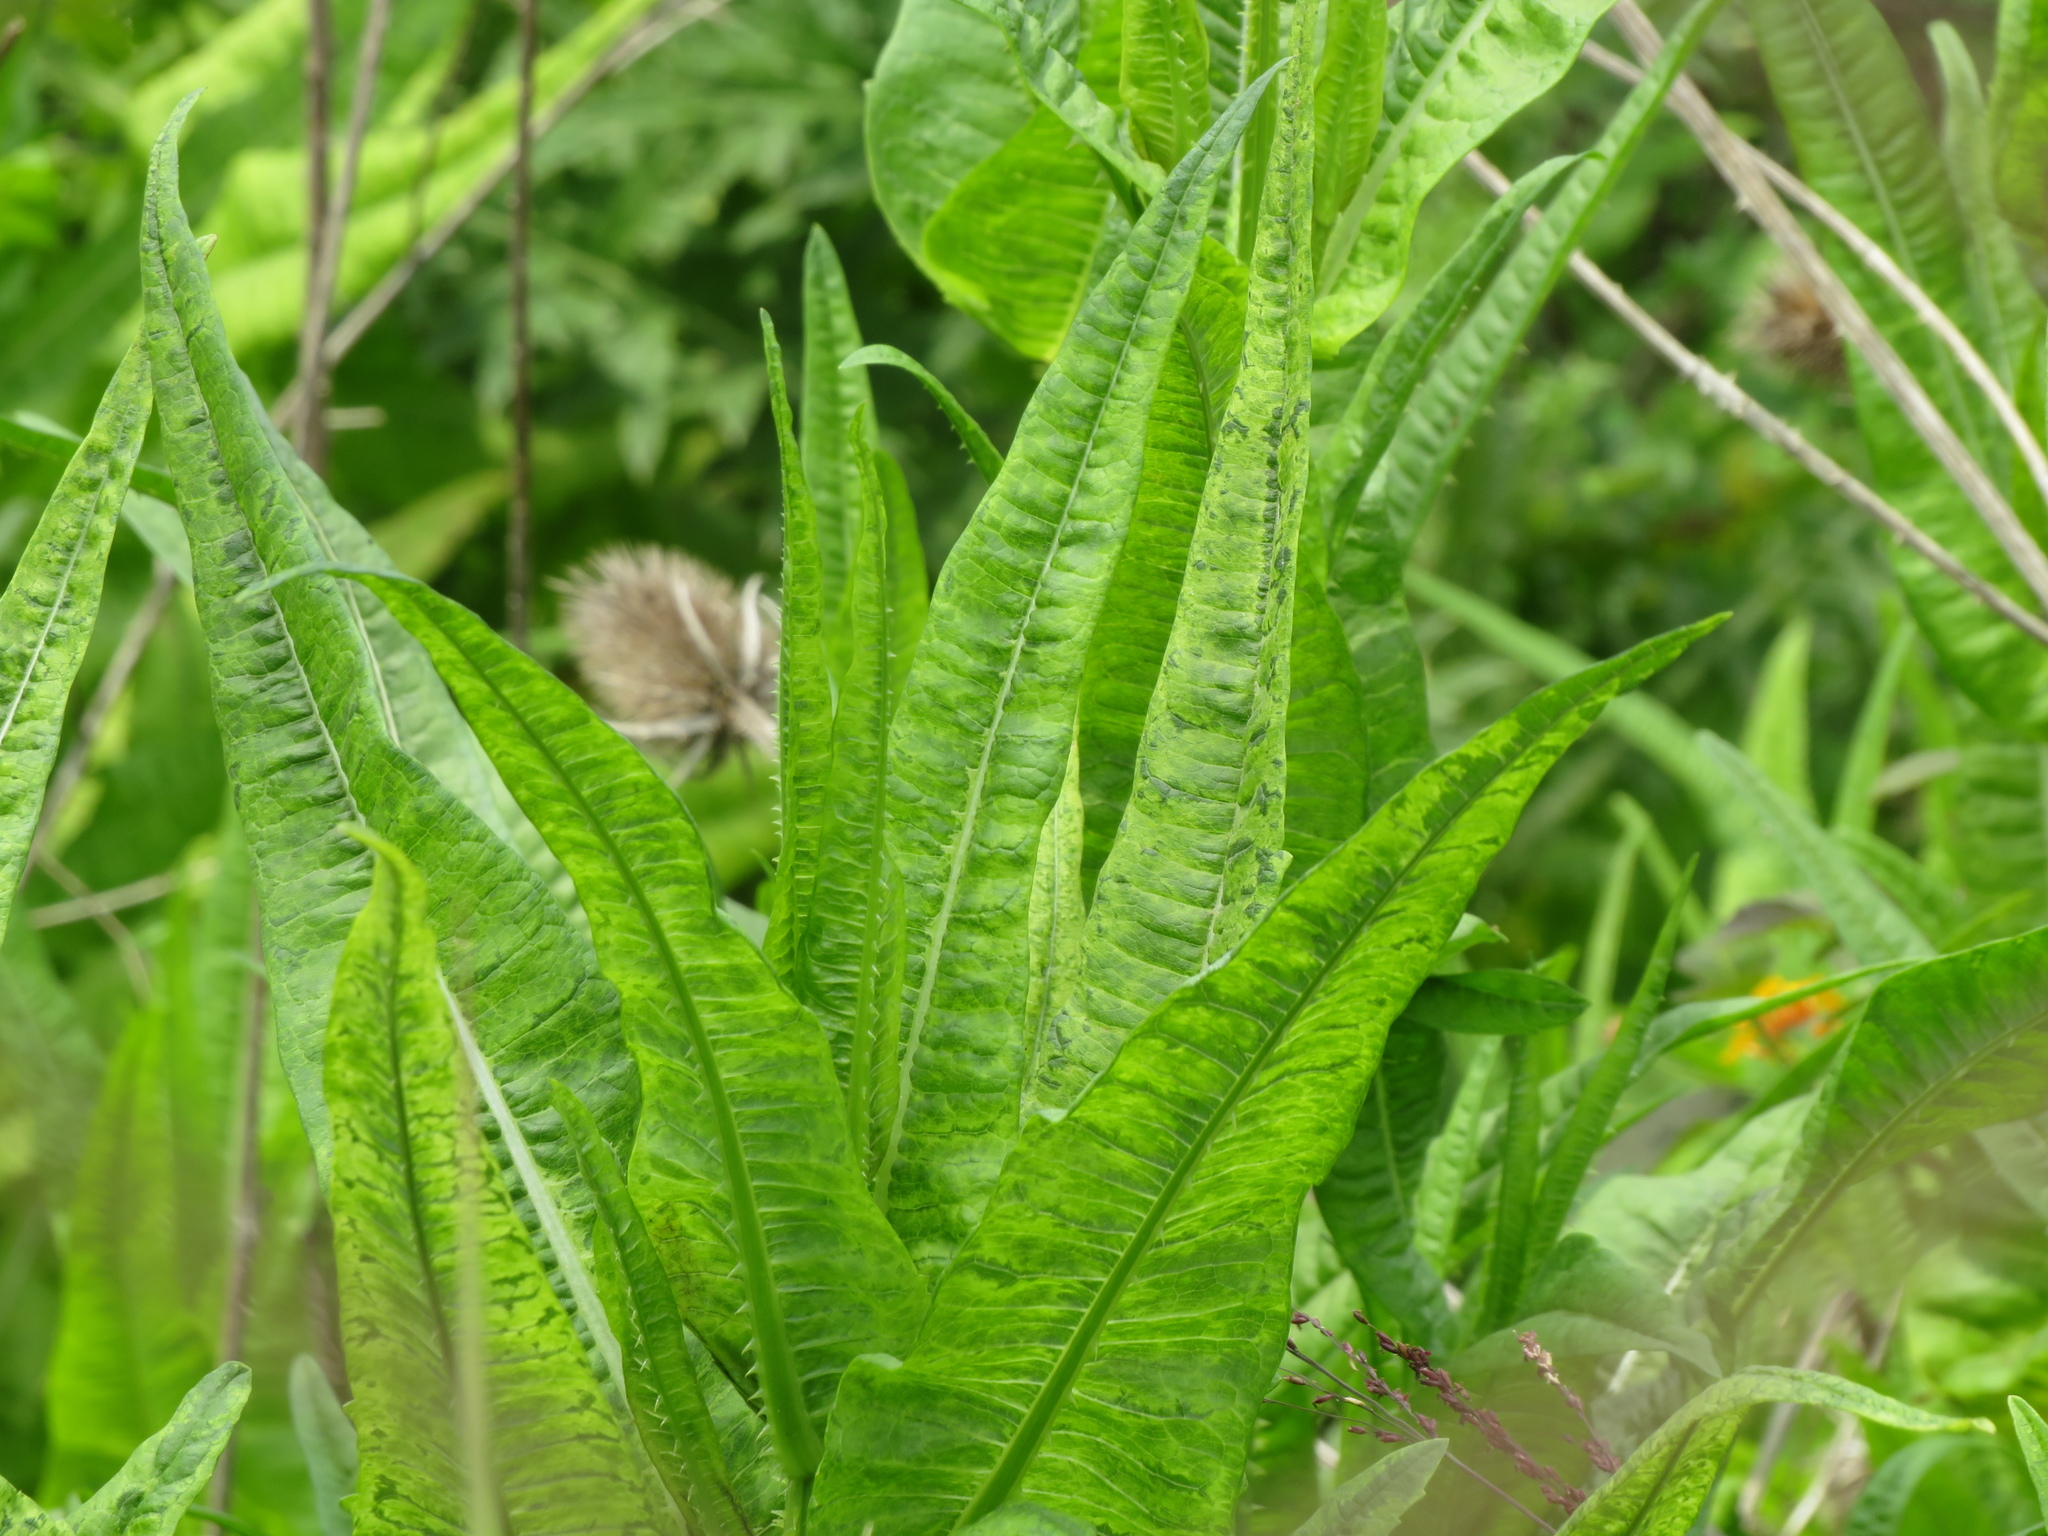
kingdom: Plantae
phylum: Tracheophyta
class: Magnoliopsida
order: Dipsacales
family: Caprifoliaceae
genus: Dipsacus
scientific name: Dipsacus fullonum
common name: Teasel
